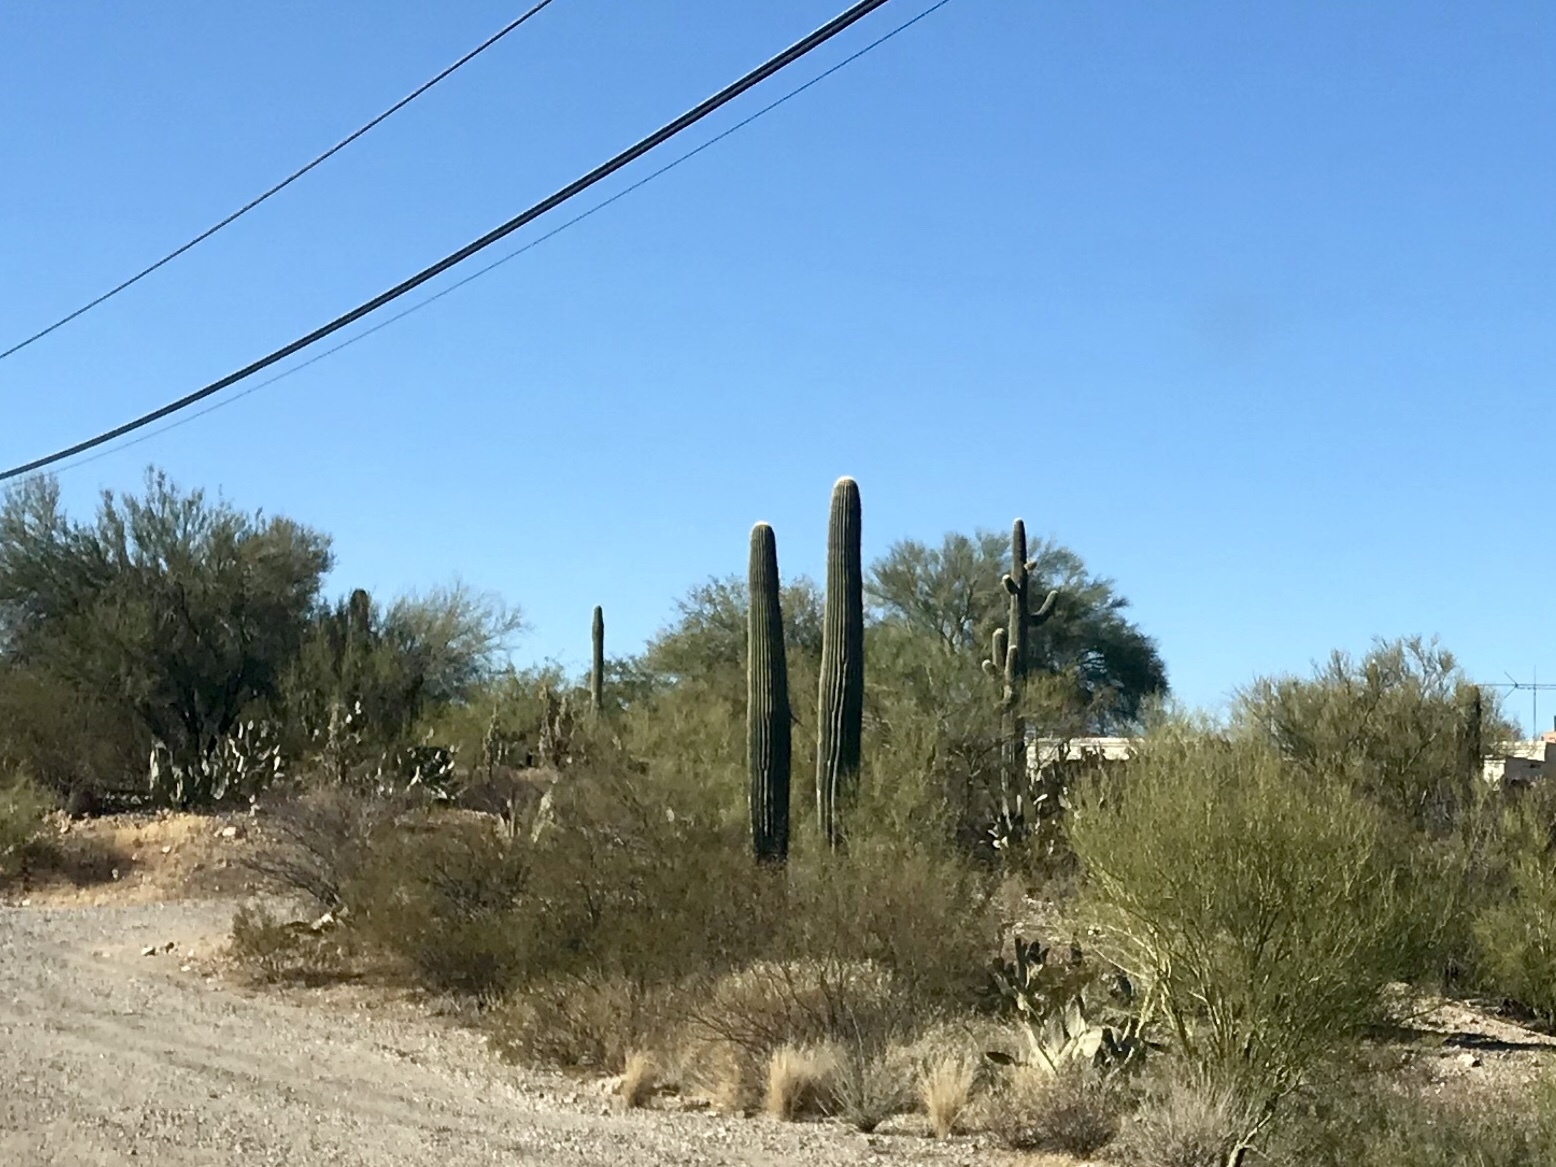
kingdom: Plantae
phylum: Tracheophyta
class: Magnoliopsida
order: Caryophyllales
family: Cactaceae
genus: Carnegiea
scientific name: Carnegiea gigantea
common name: Saguaro
